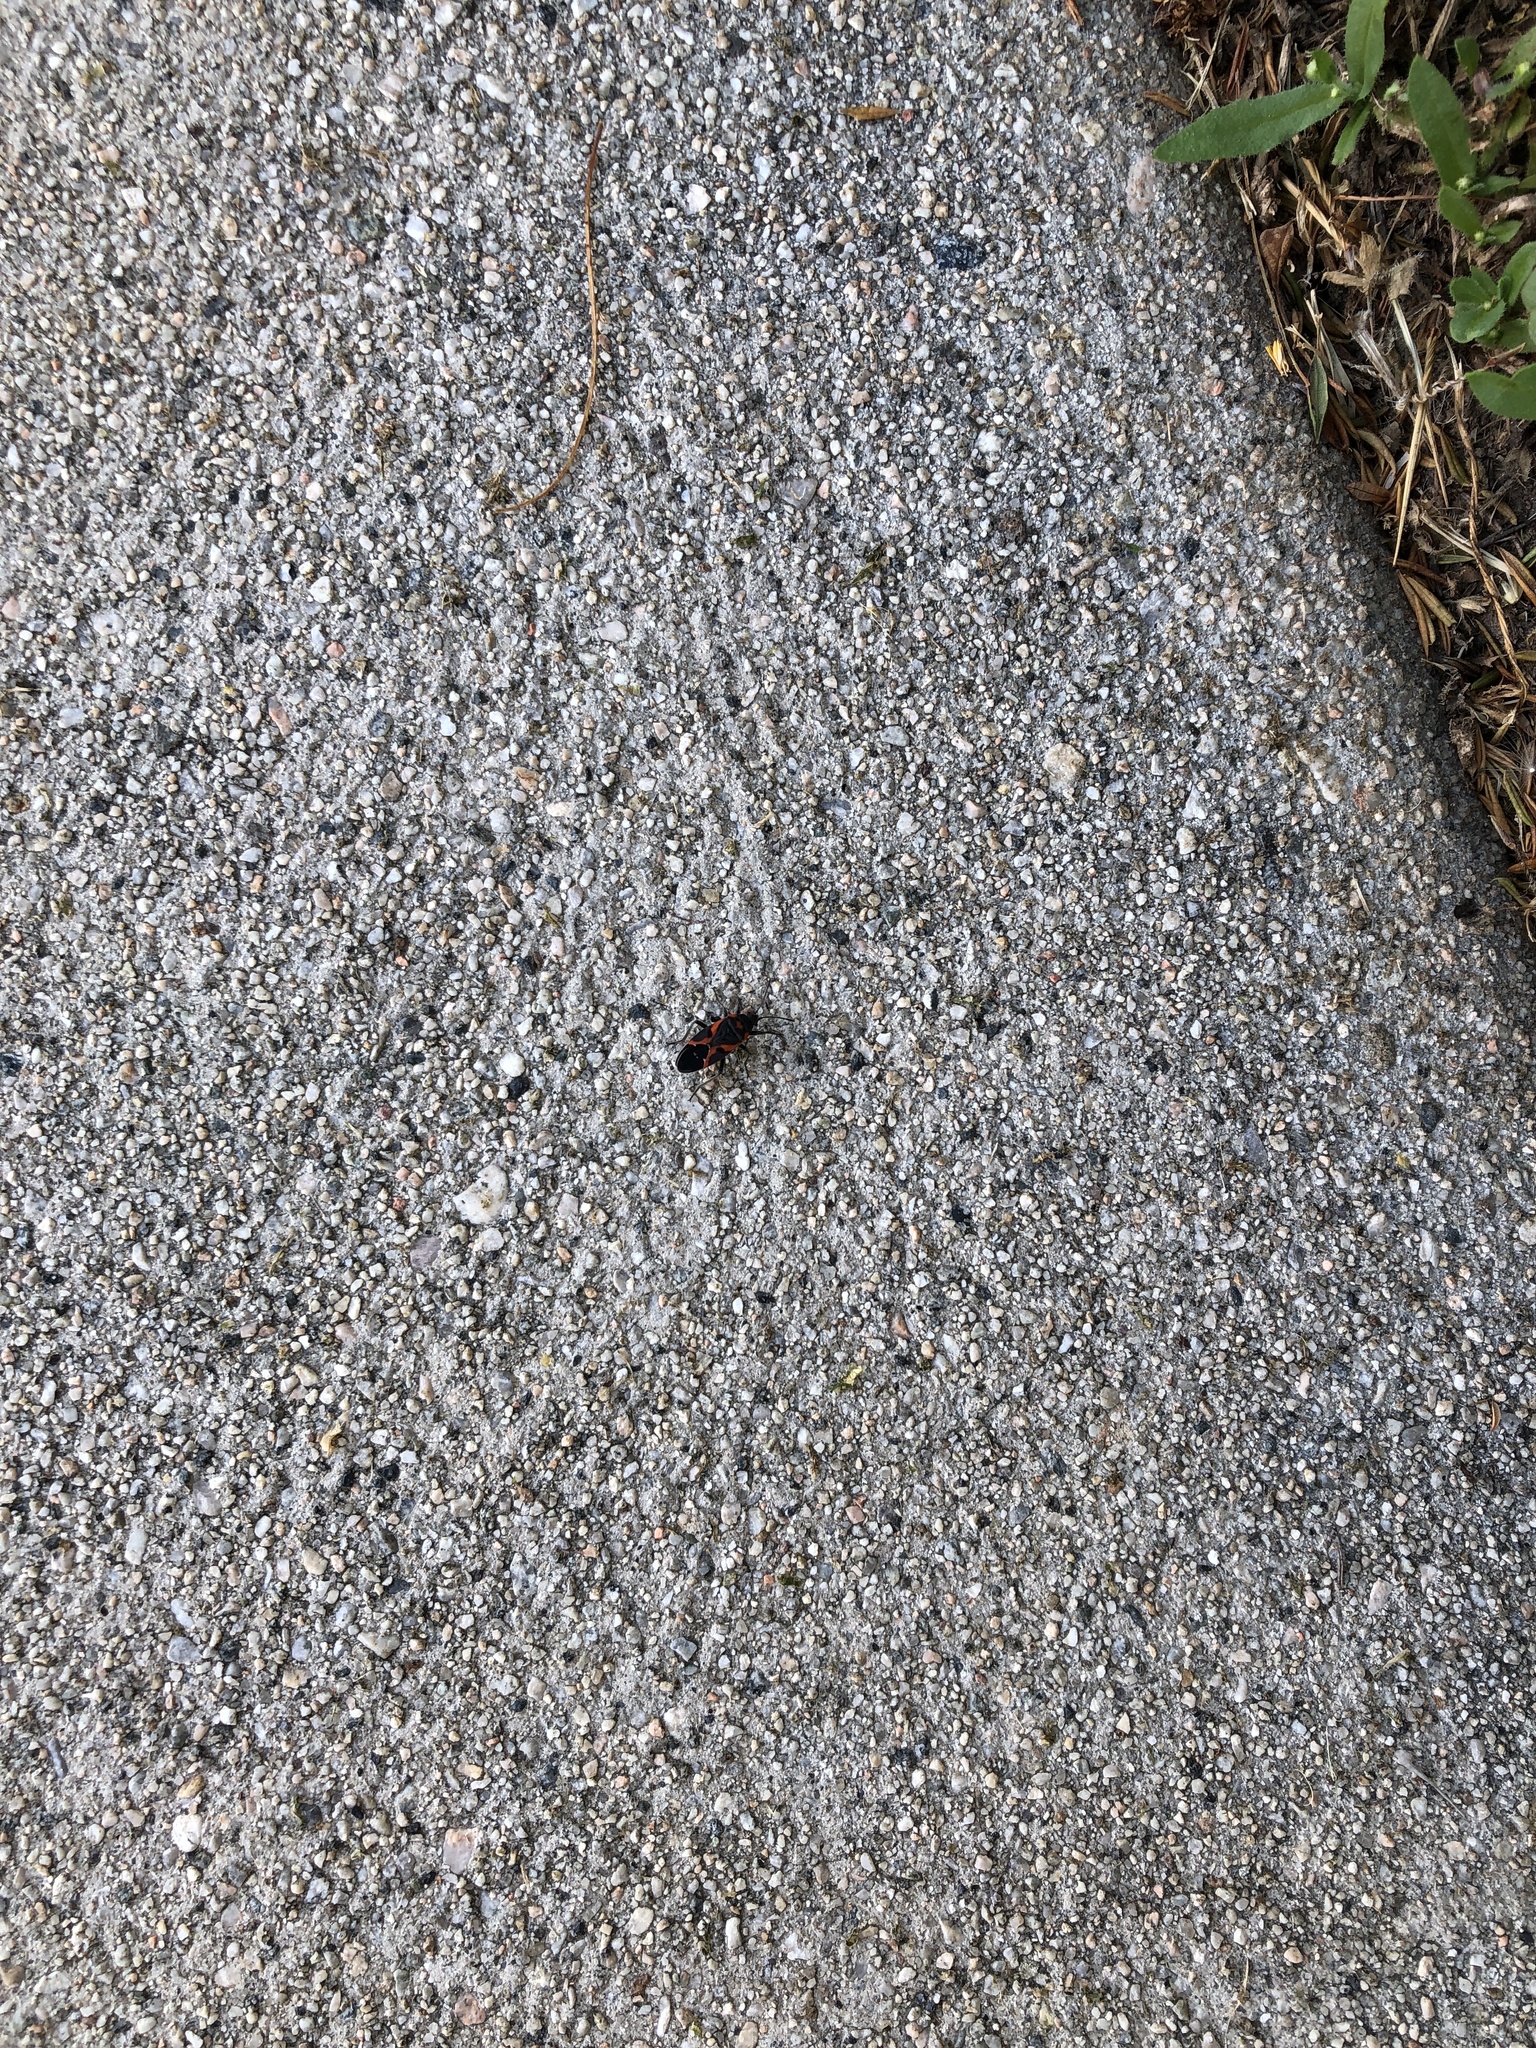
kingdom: Animalia
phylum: Arthropoda
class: Insecta
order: Hemiptera
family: Lygaeidae
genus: Lygaeus
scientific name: Lygaeus kalmii
